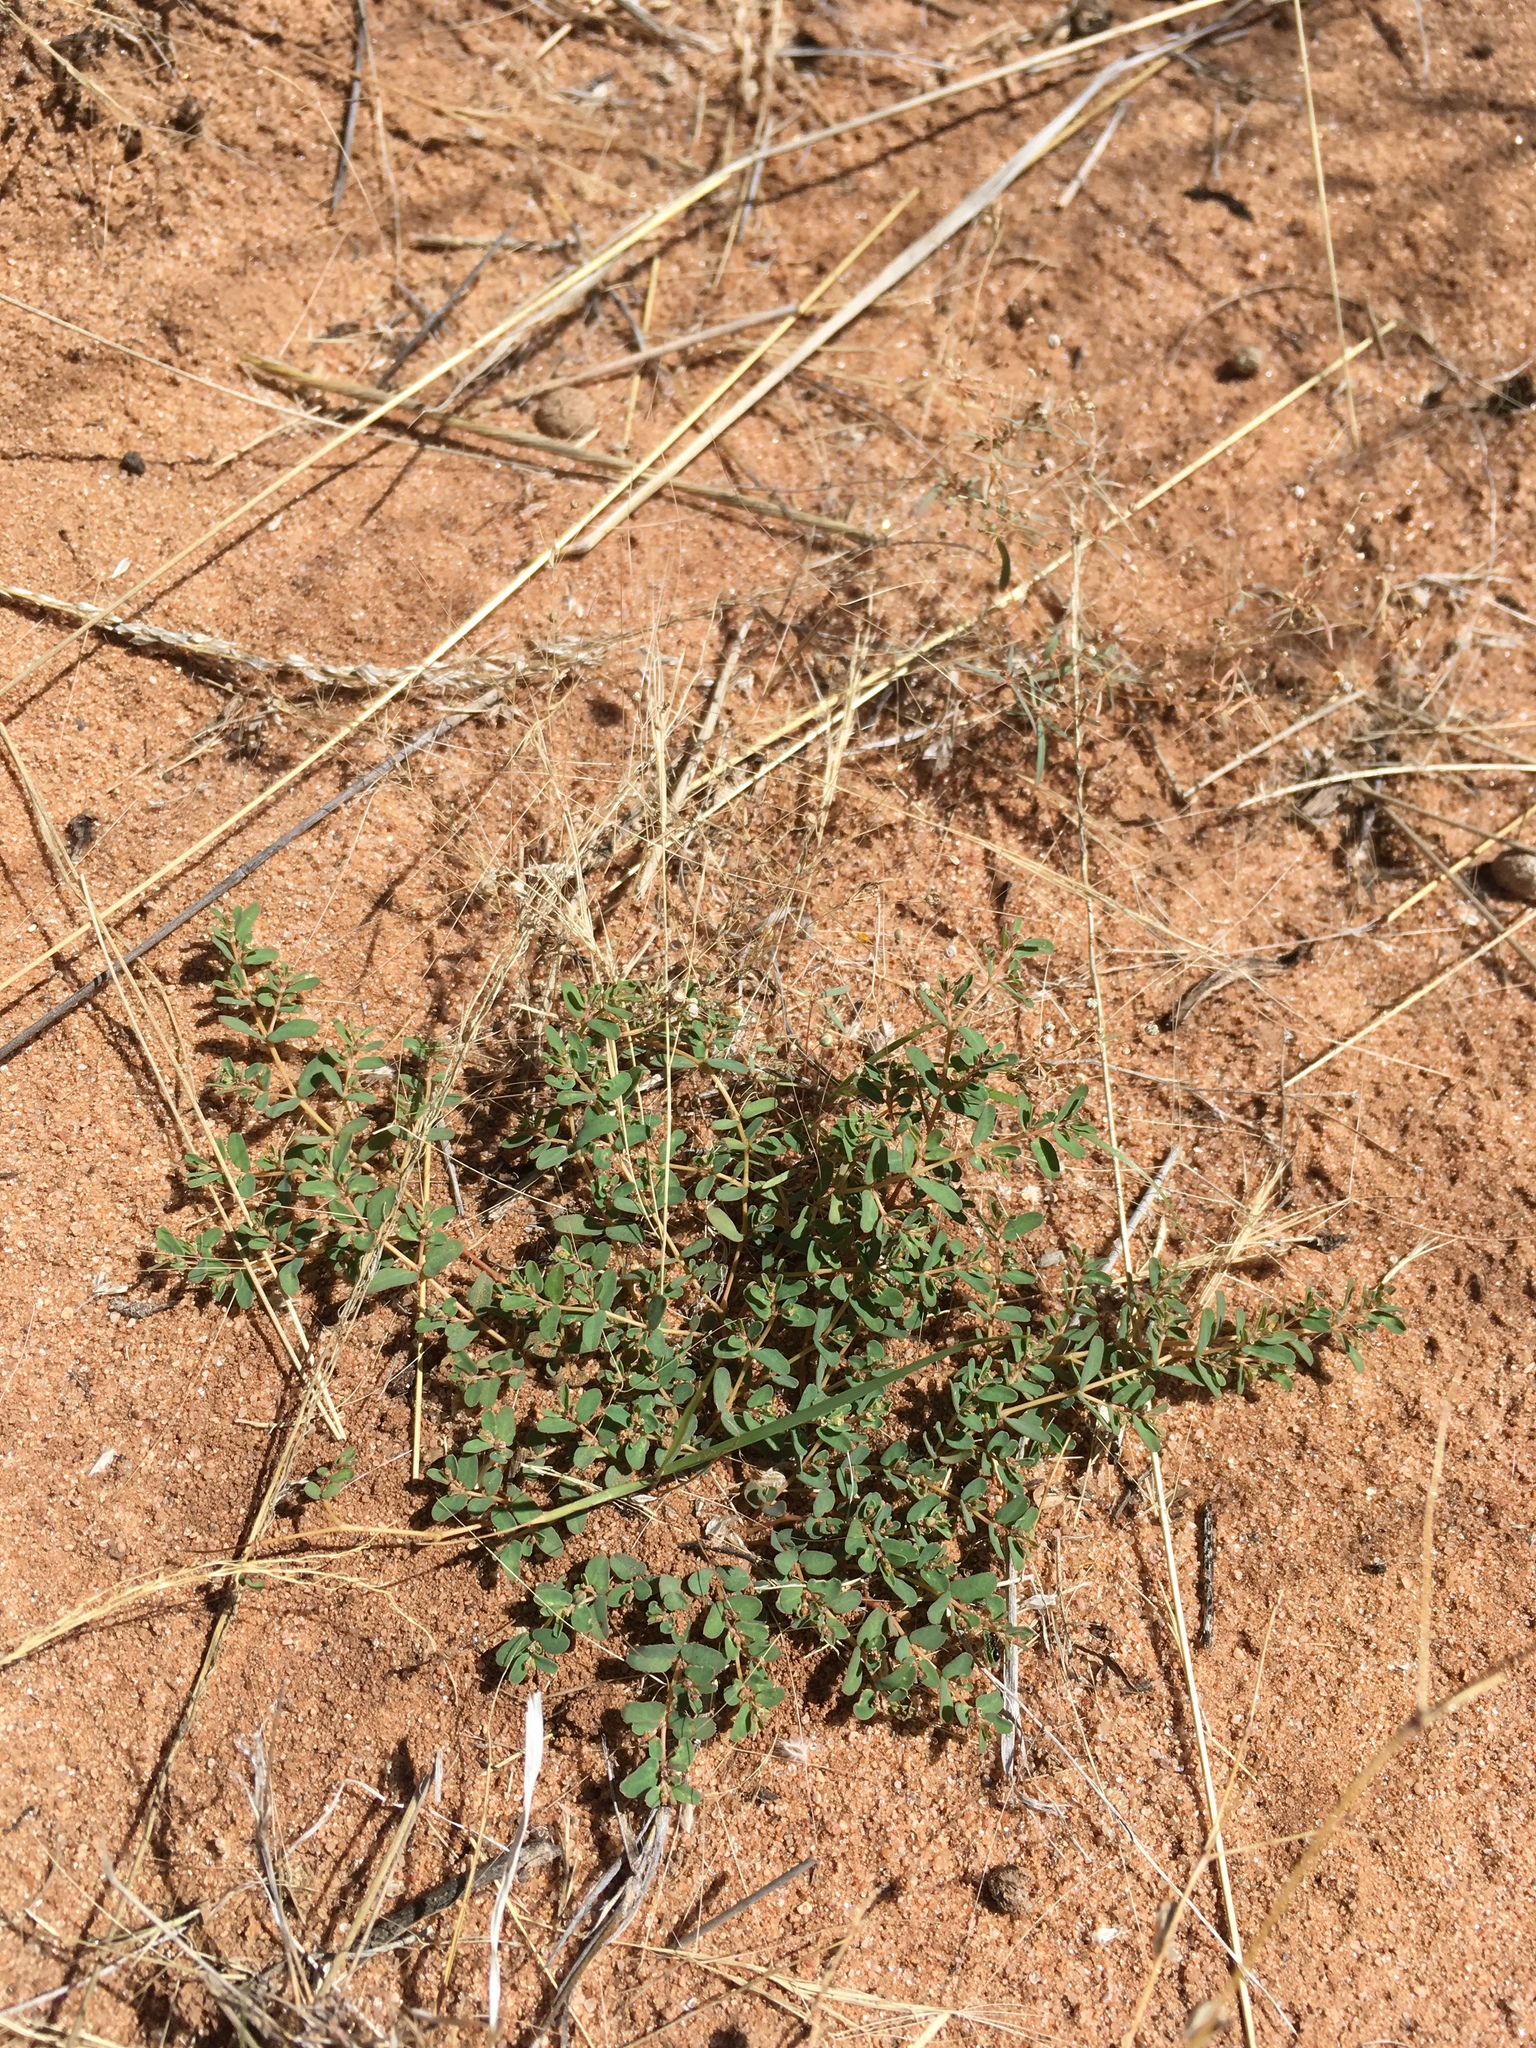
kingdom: Plantae
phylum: Tracheophyta
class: Magnoliopsida
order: Malpighiales
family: Euphorbiaceae
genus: Euphorbia
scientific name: Euphorbia glyptosperma
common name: Corrugate-seeded spurge
